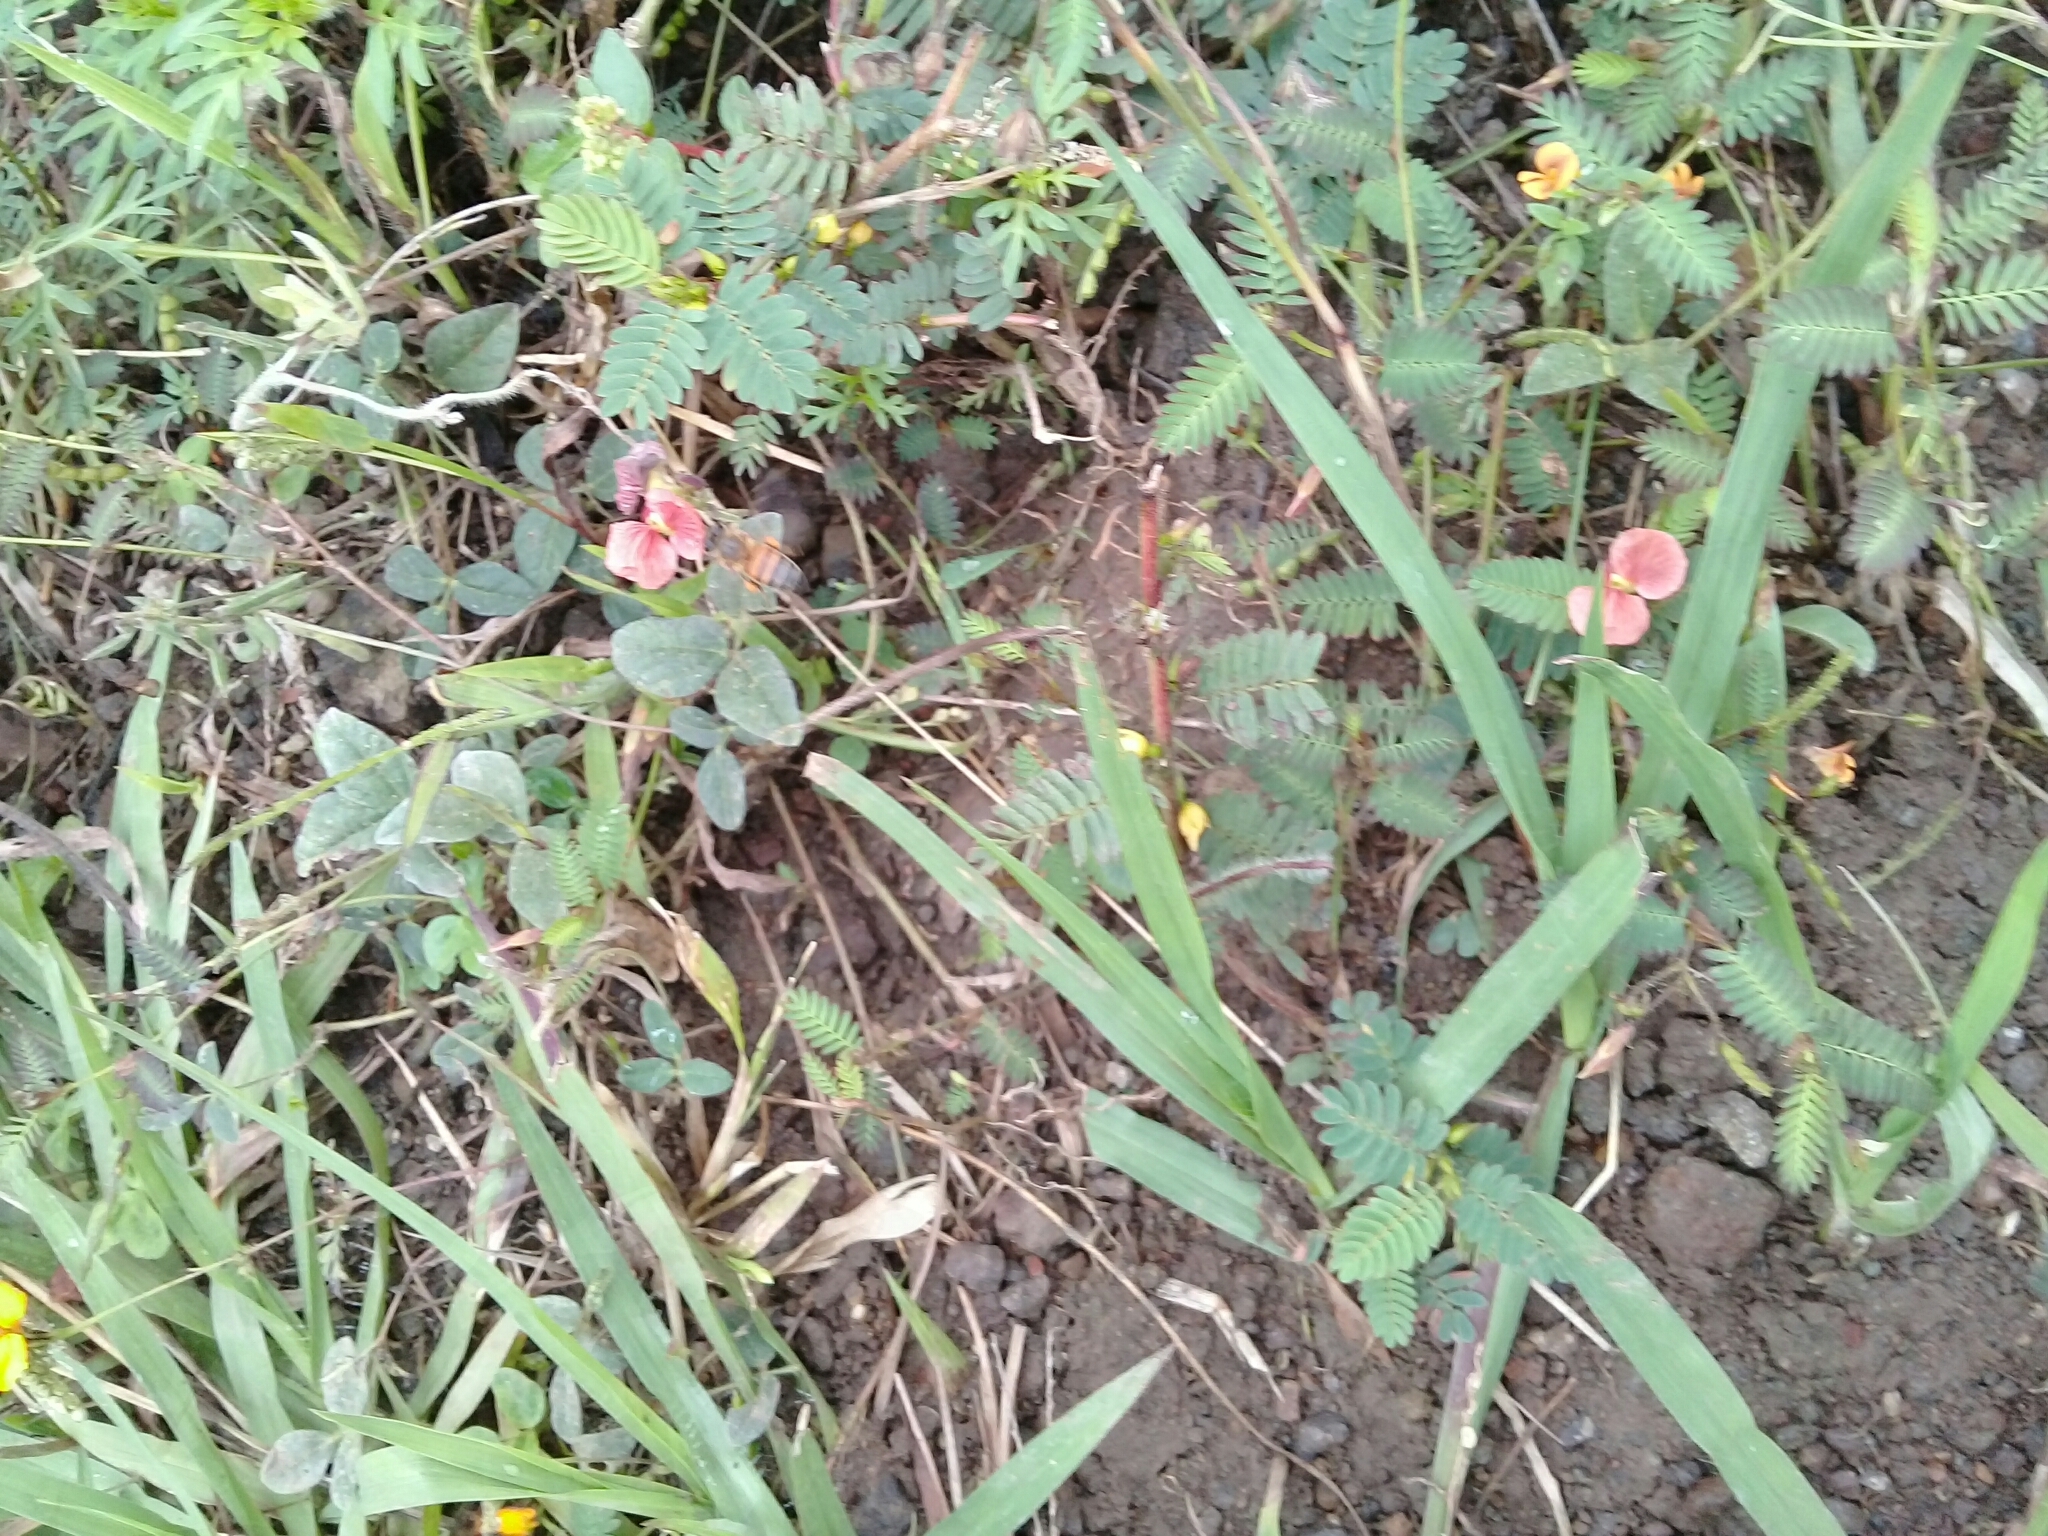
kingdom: Plantae
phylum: Tracheophyta
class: Magnoliopsida
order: Fabales
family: Fabaceae
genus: Macroptilium
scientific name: Macroptilium gibbosifolium
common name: Variableleaf bushbean
